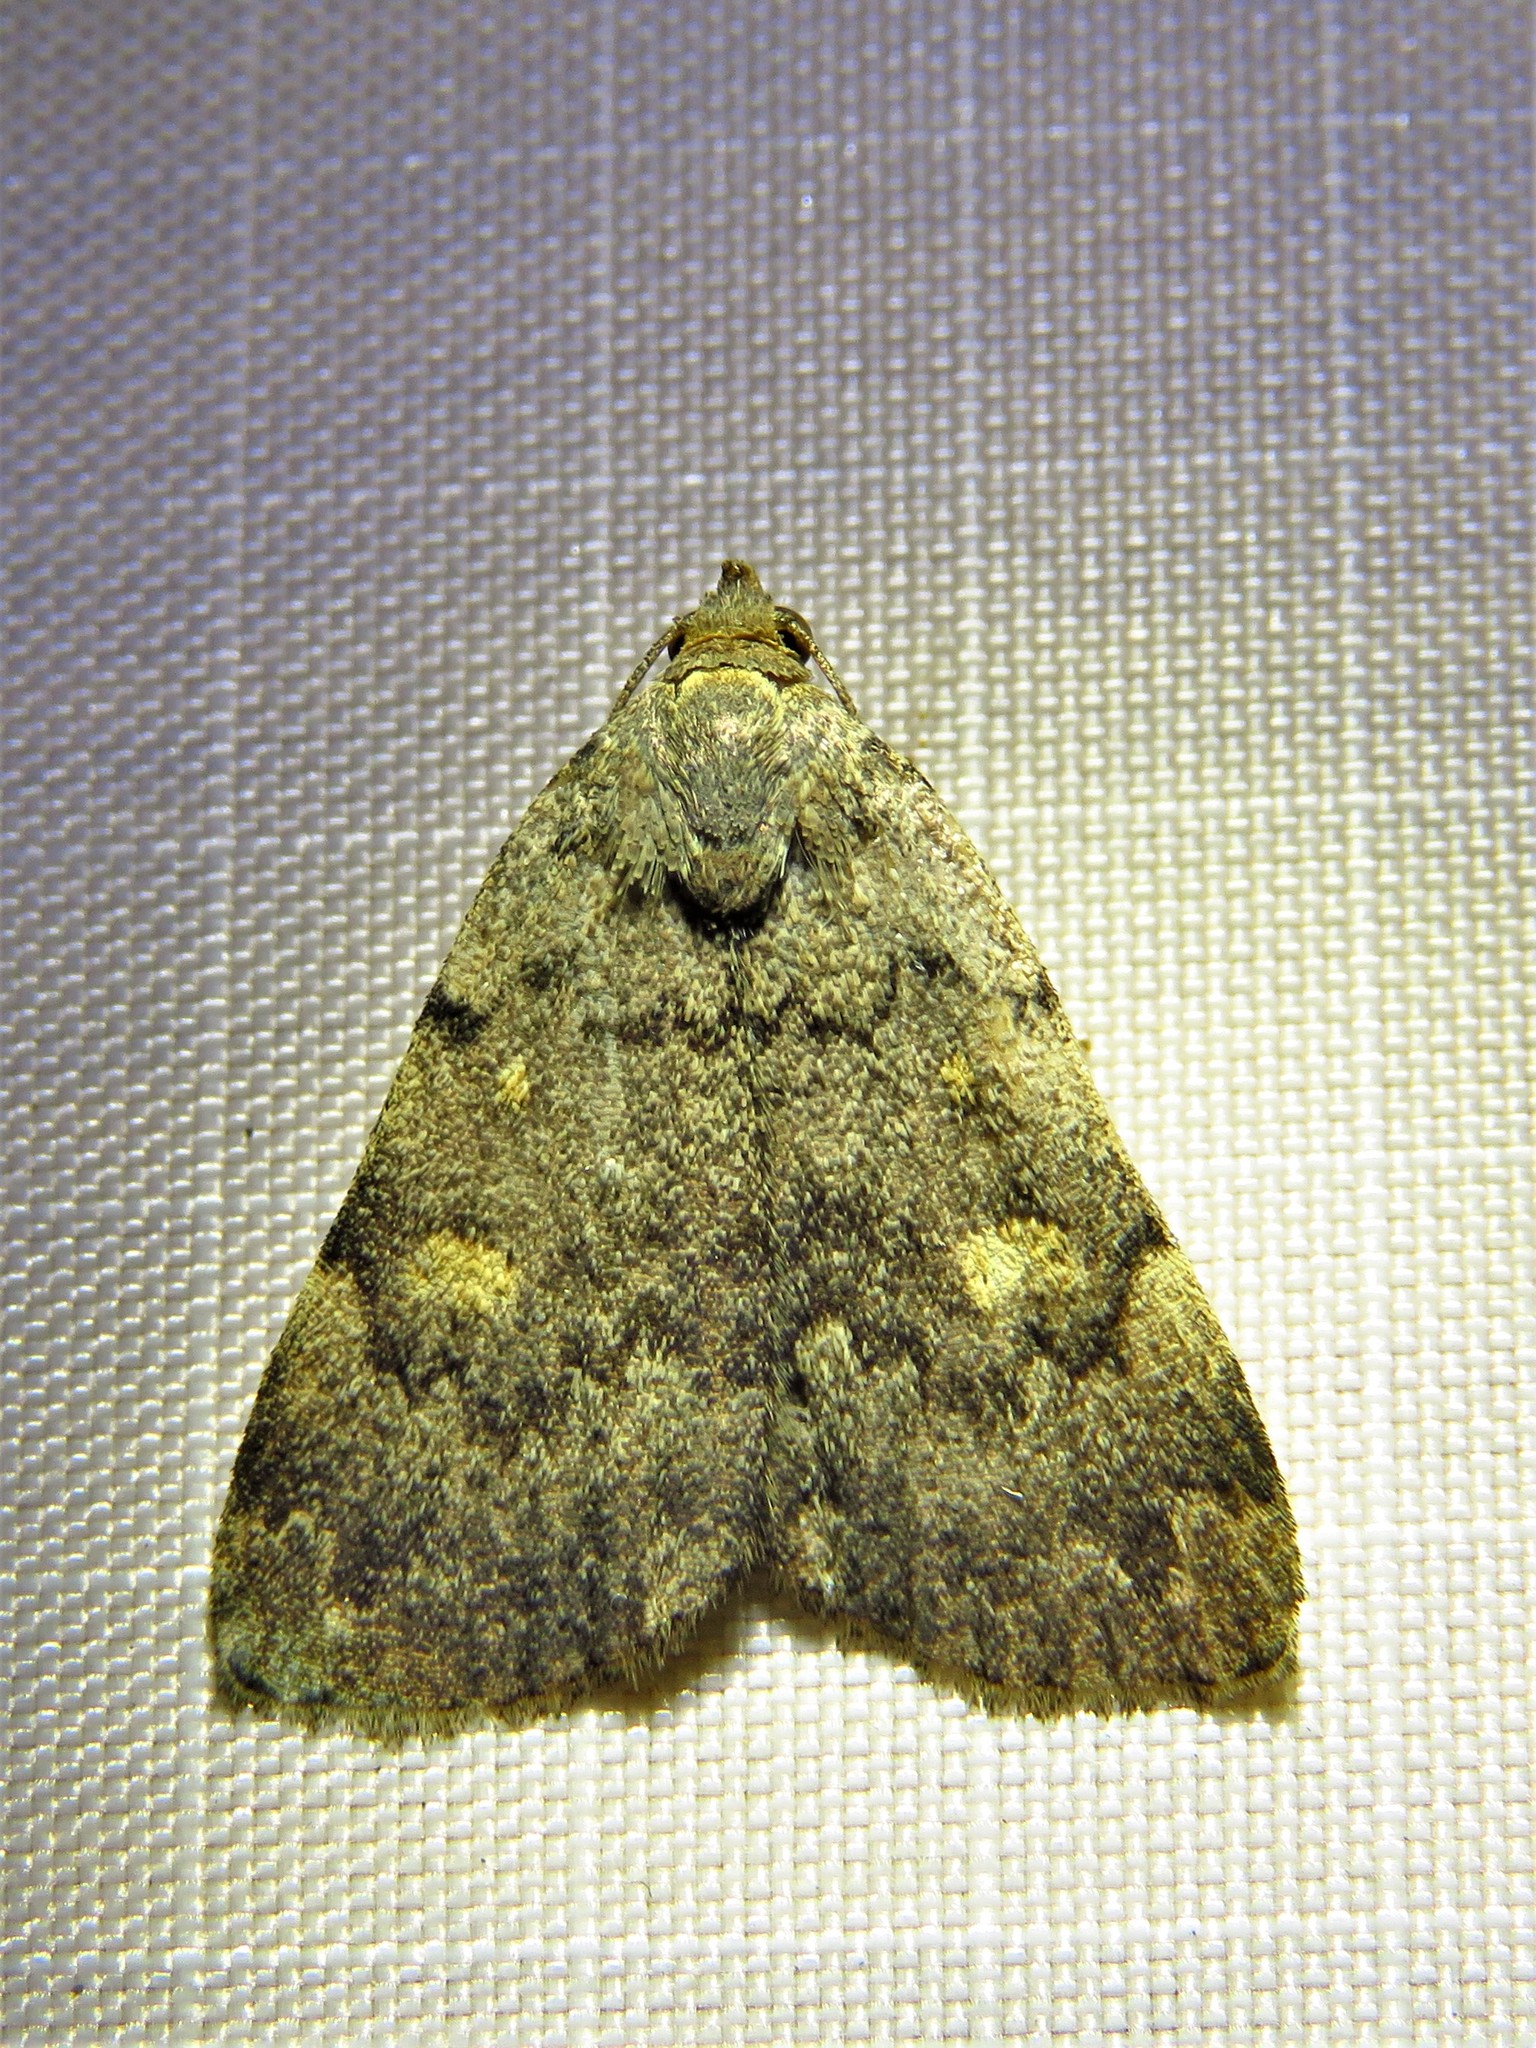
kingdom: Animalia
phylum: Arthropoda
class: Insecta
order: Lepidoptera
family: Erebidae
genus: Idia
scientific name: Idia aemula
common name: Common idia moth
